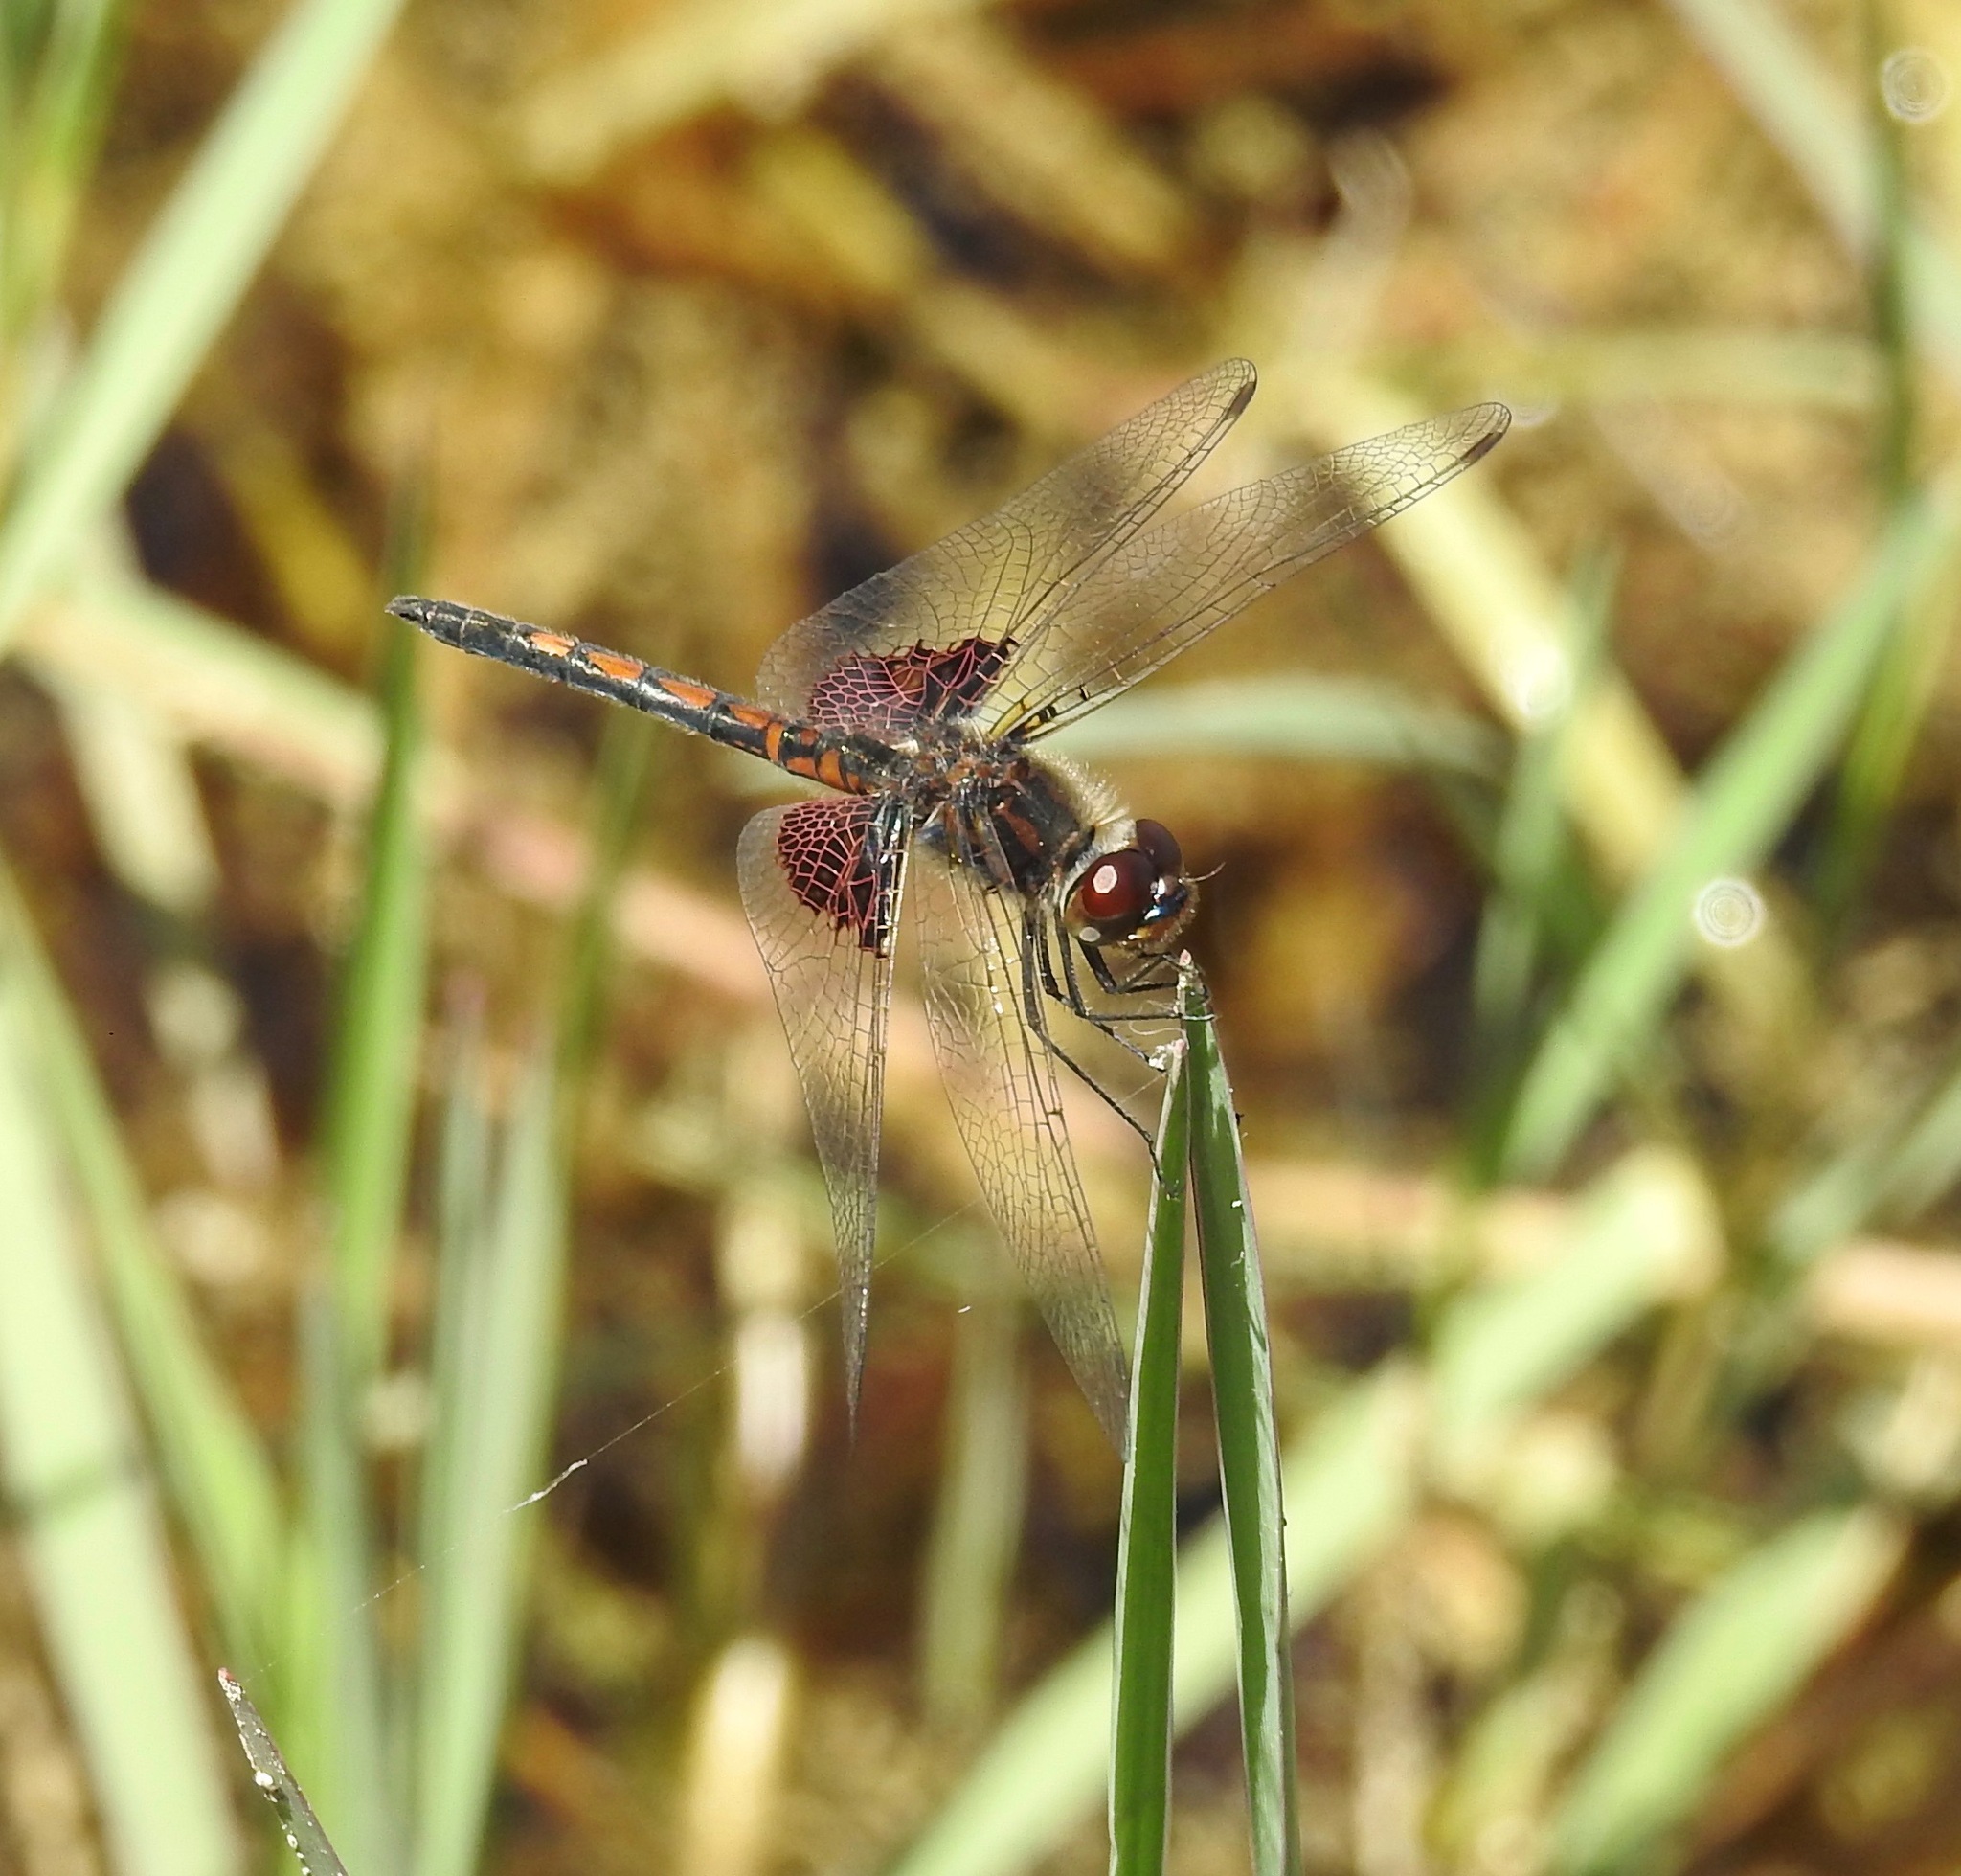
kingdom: Animalia
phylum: Arthropoda
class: Insecta
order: Odonata
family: Libellulidae
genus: Celithemis
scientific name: Celithemis ornata
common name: Ornate pennant
